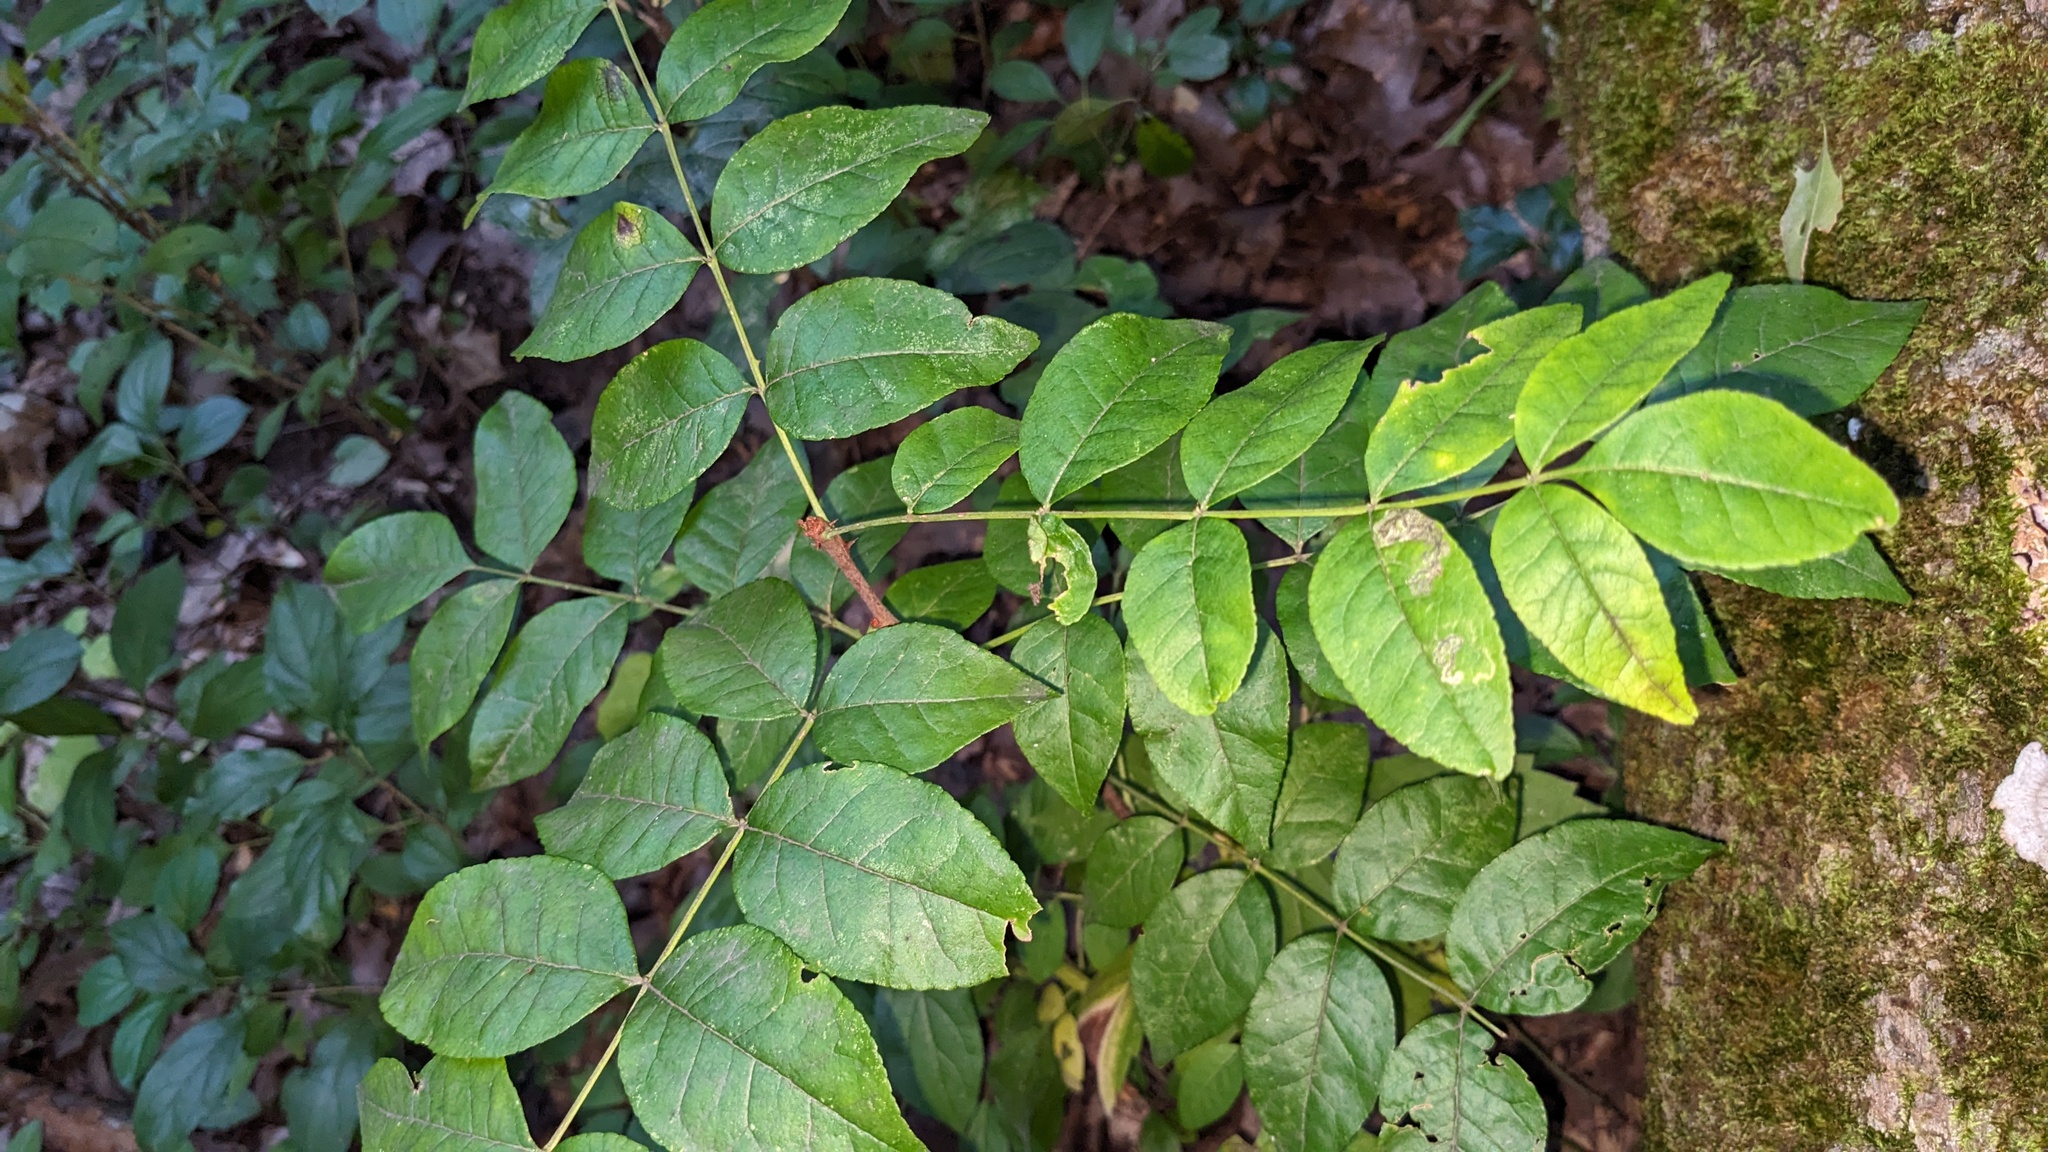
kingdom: Plantae
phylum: Tracheophyta
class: Magnoliopsida
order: Sapindales
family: Rutaceae
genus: Zanthoxylum
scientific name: Zanthoxylum americanum
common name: Northern prickly-ash
